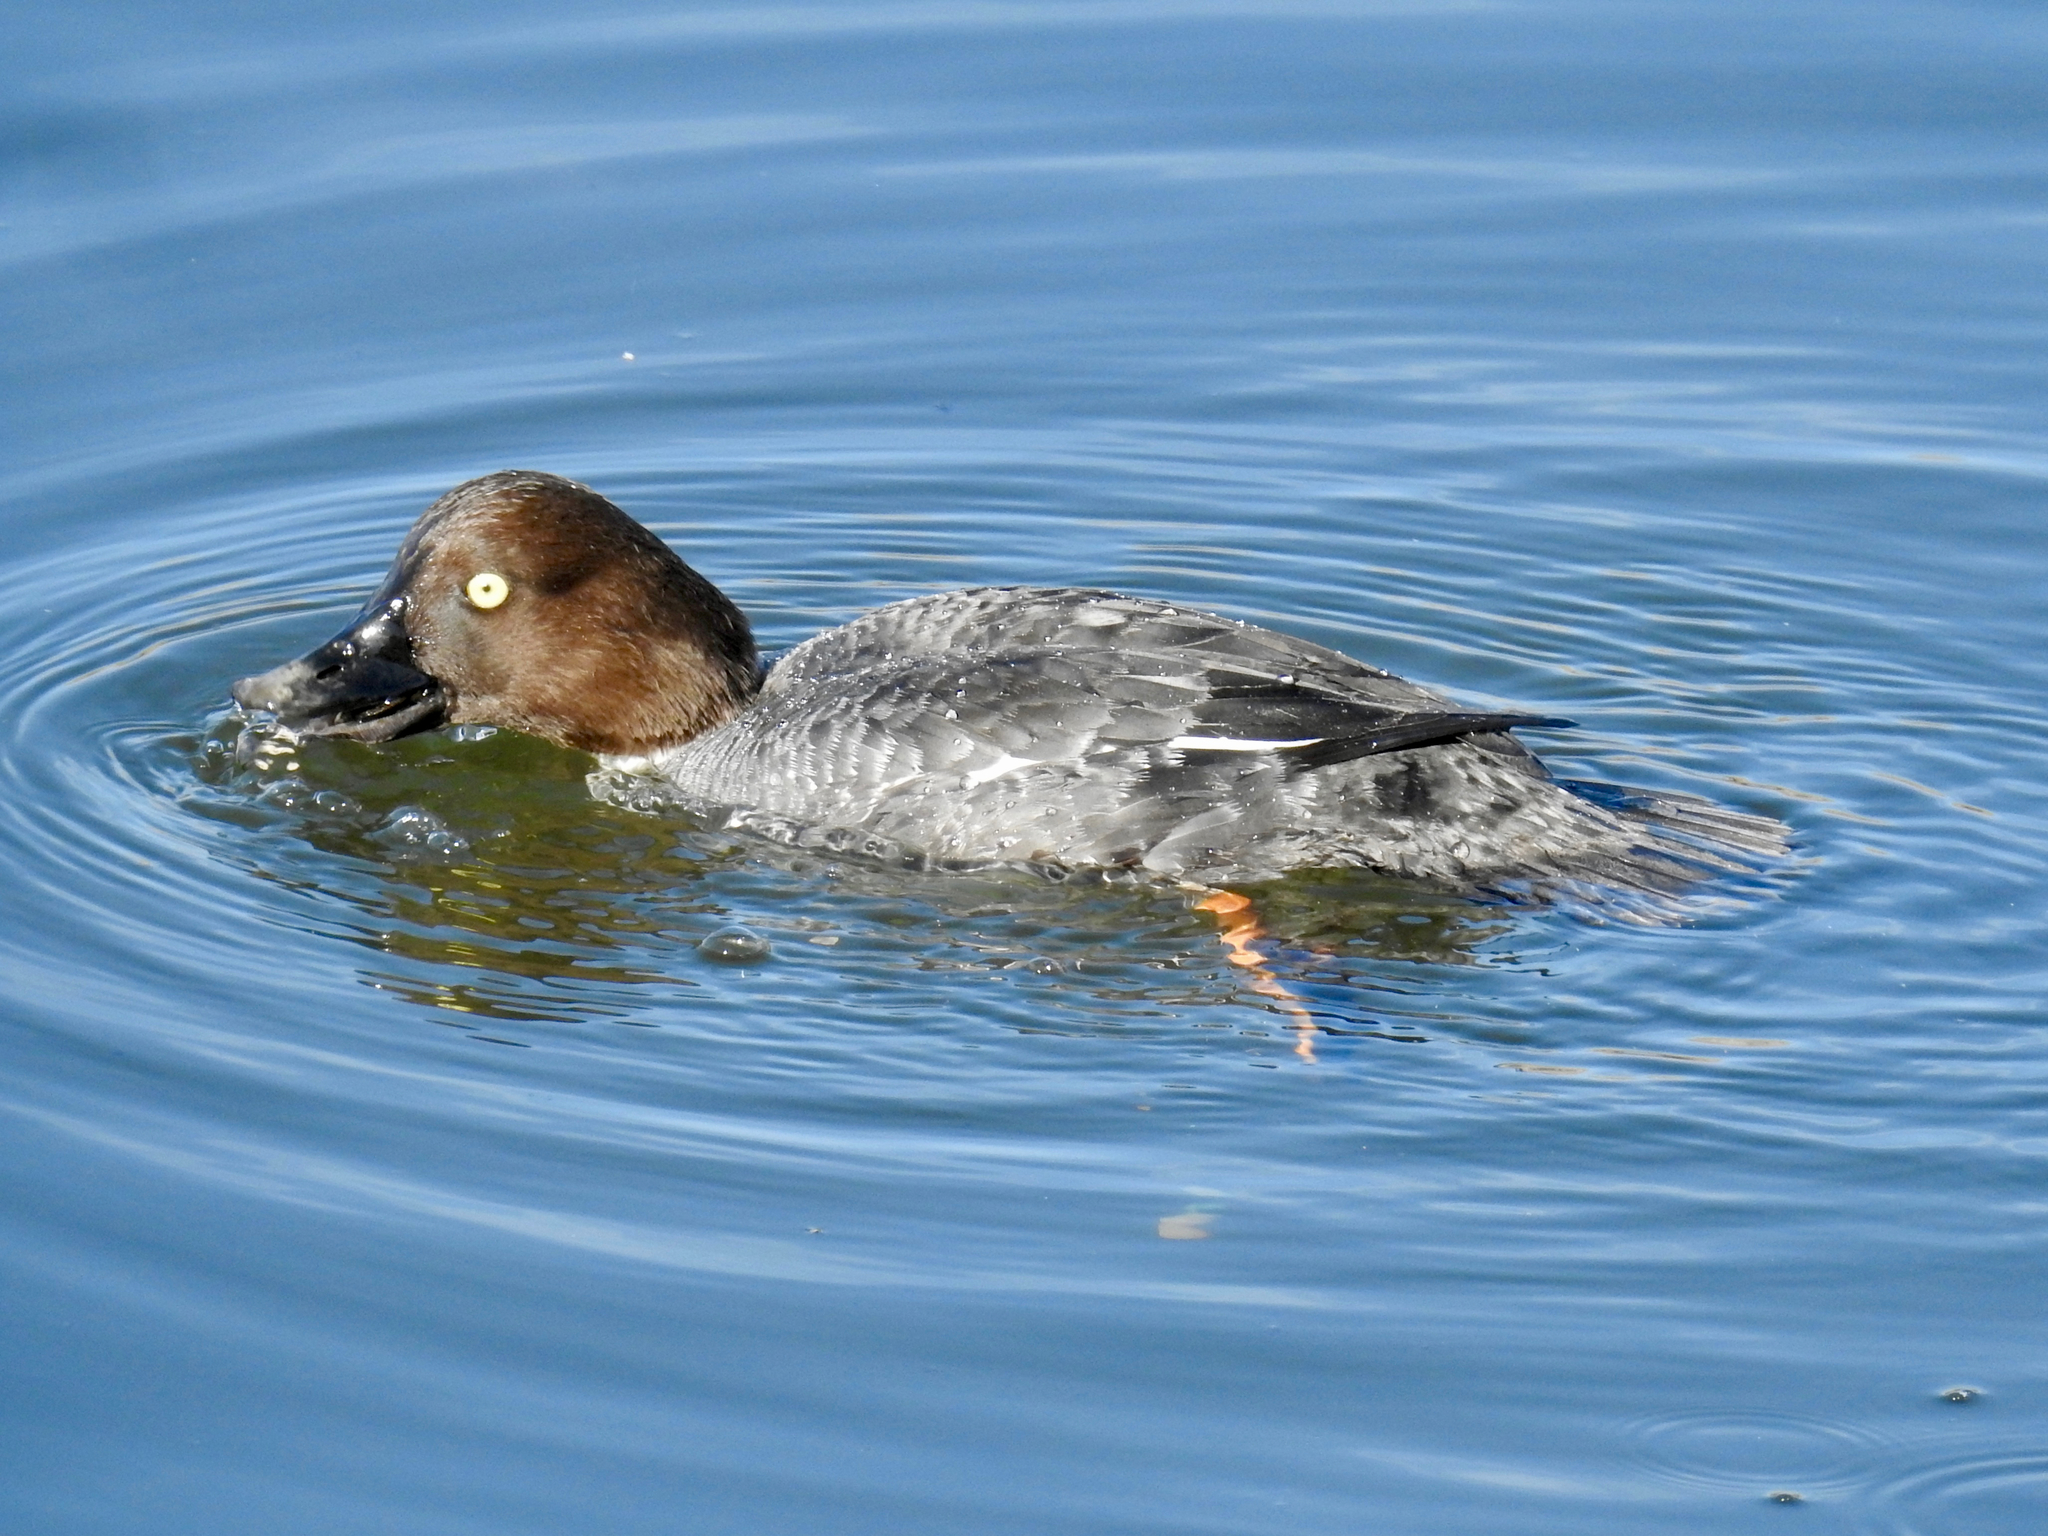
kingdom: Animalia
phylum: Chordata
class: Aves
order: Anseriformes
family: Anatidae
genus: Bucephala
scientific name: Bucephala clangula
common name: Common goldeneye
